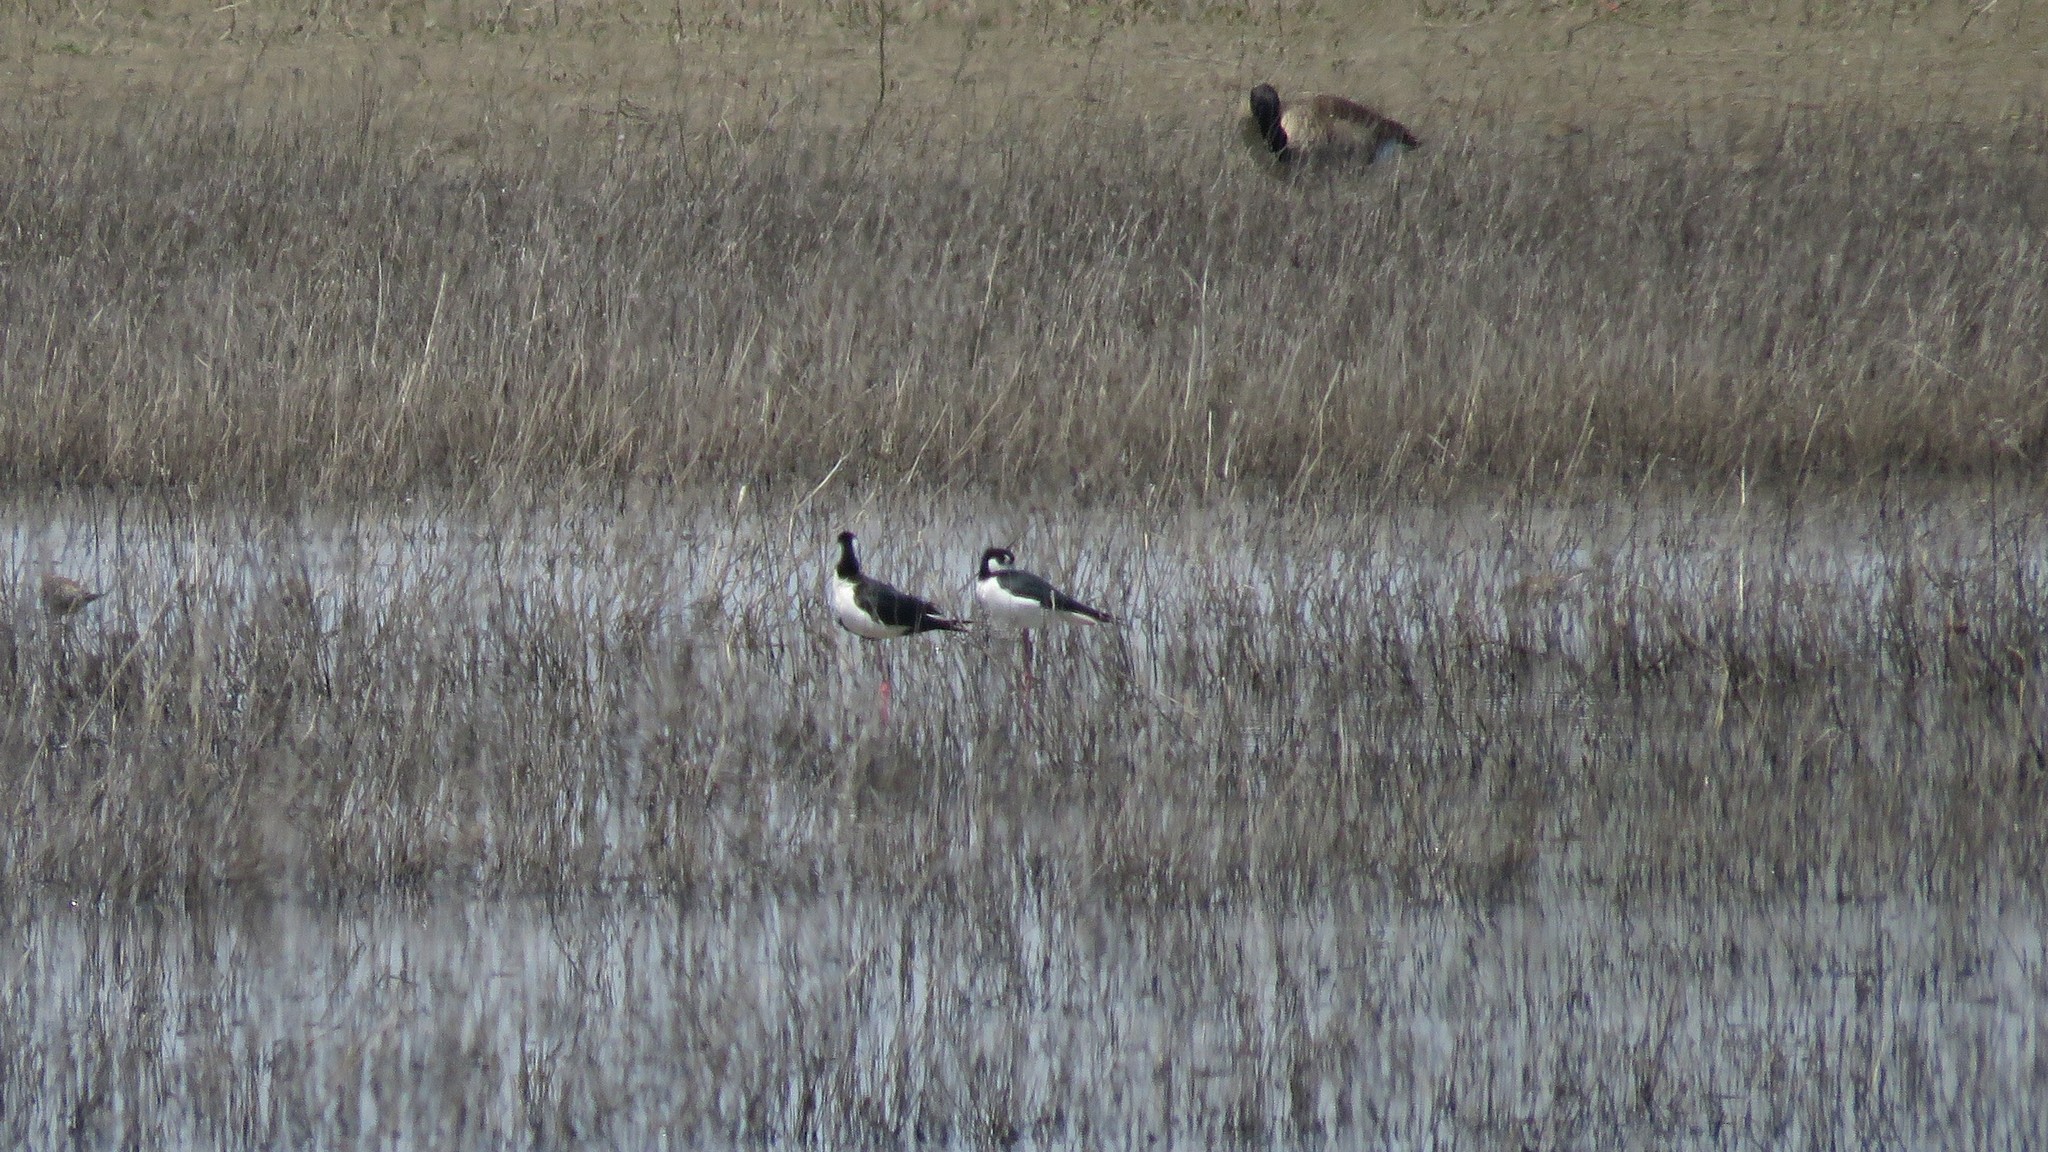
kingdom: Animalia
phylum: Chordata
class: Aves
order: Charadriiformes
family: Recurvirostridae
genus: Himantopus
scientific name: Himantopus mexicanus
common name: Black-necked stilt
